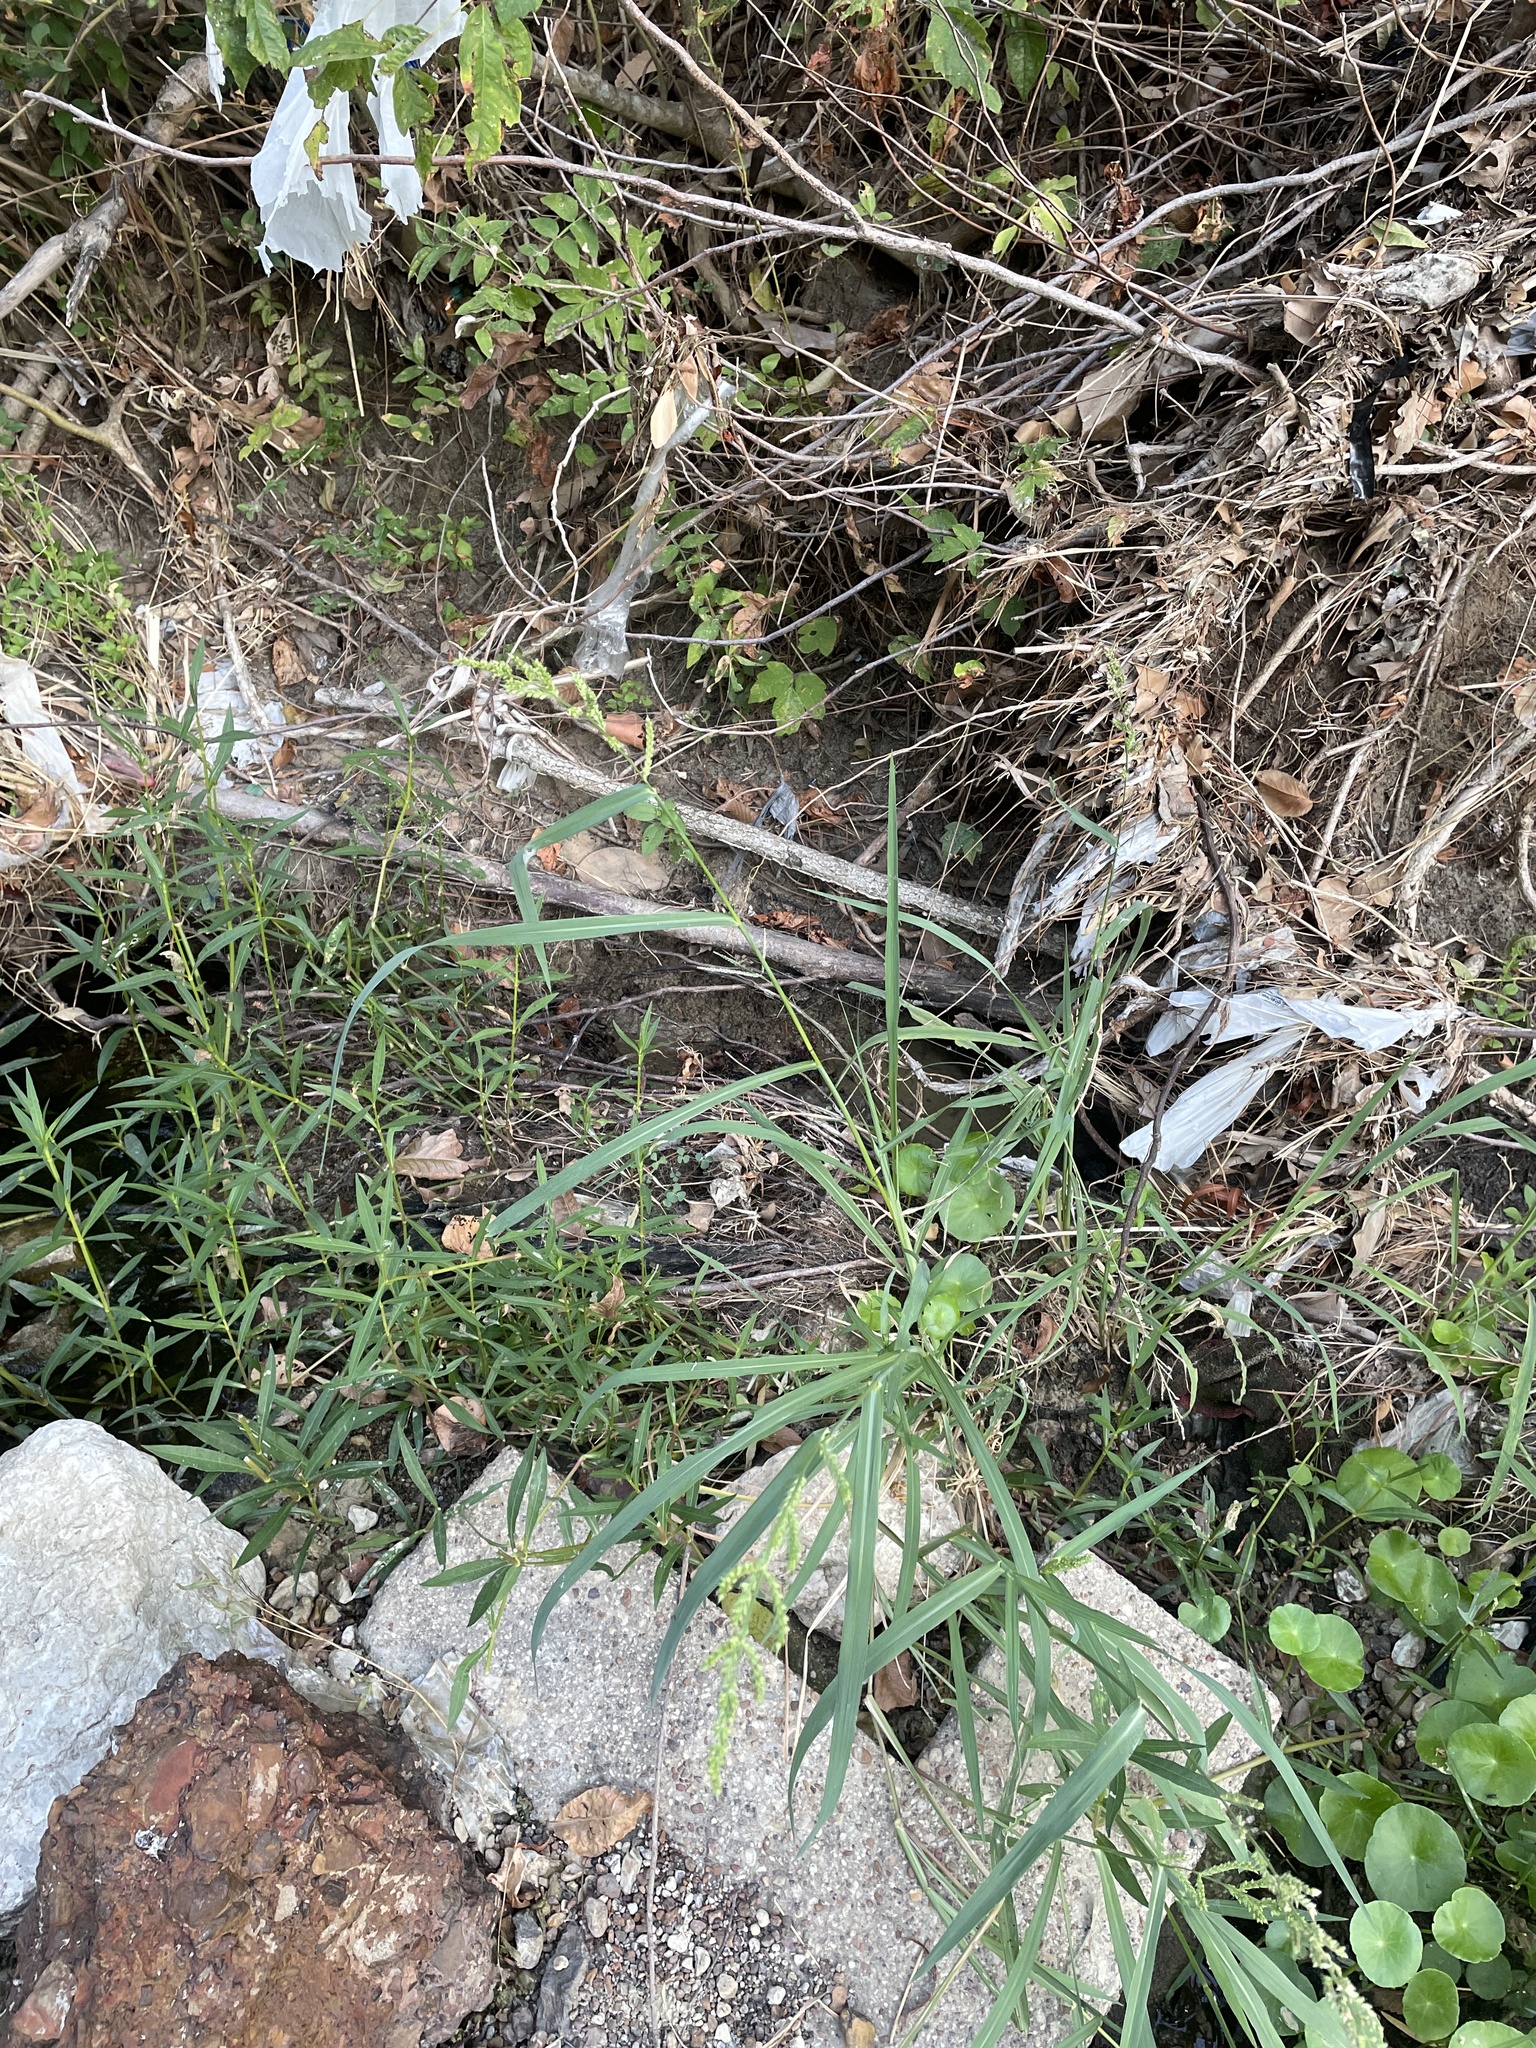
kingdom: Plantae
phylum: Tracheophyta
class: Liliopsida
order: Poales
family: Poaceae
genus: Echinochloa
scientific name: Echinochloa crus-galli
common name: Cockspur
